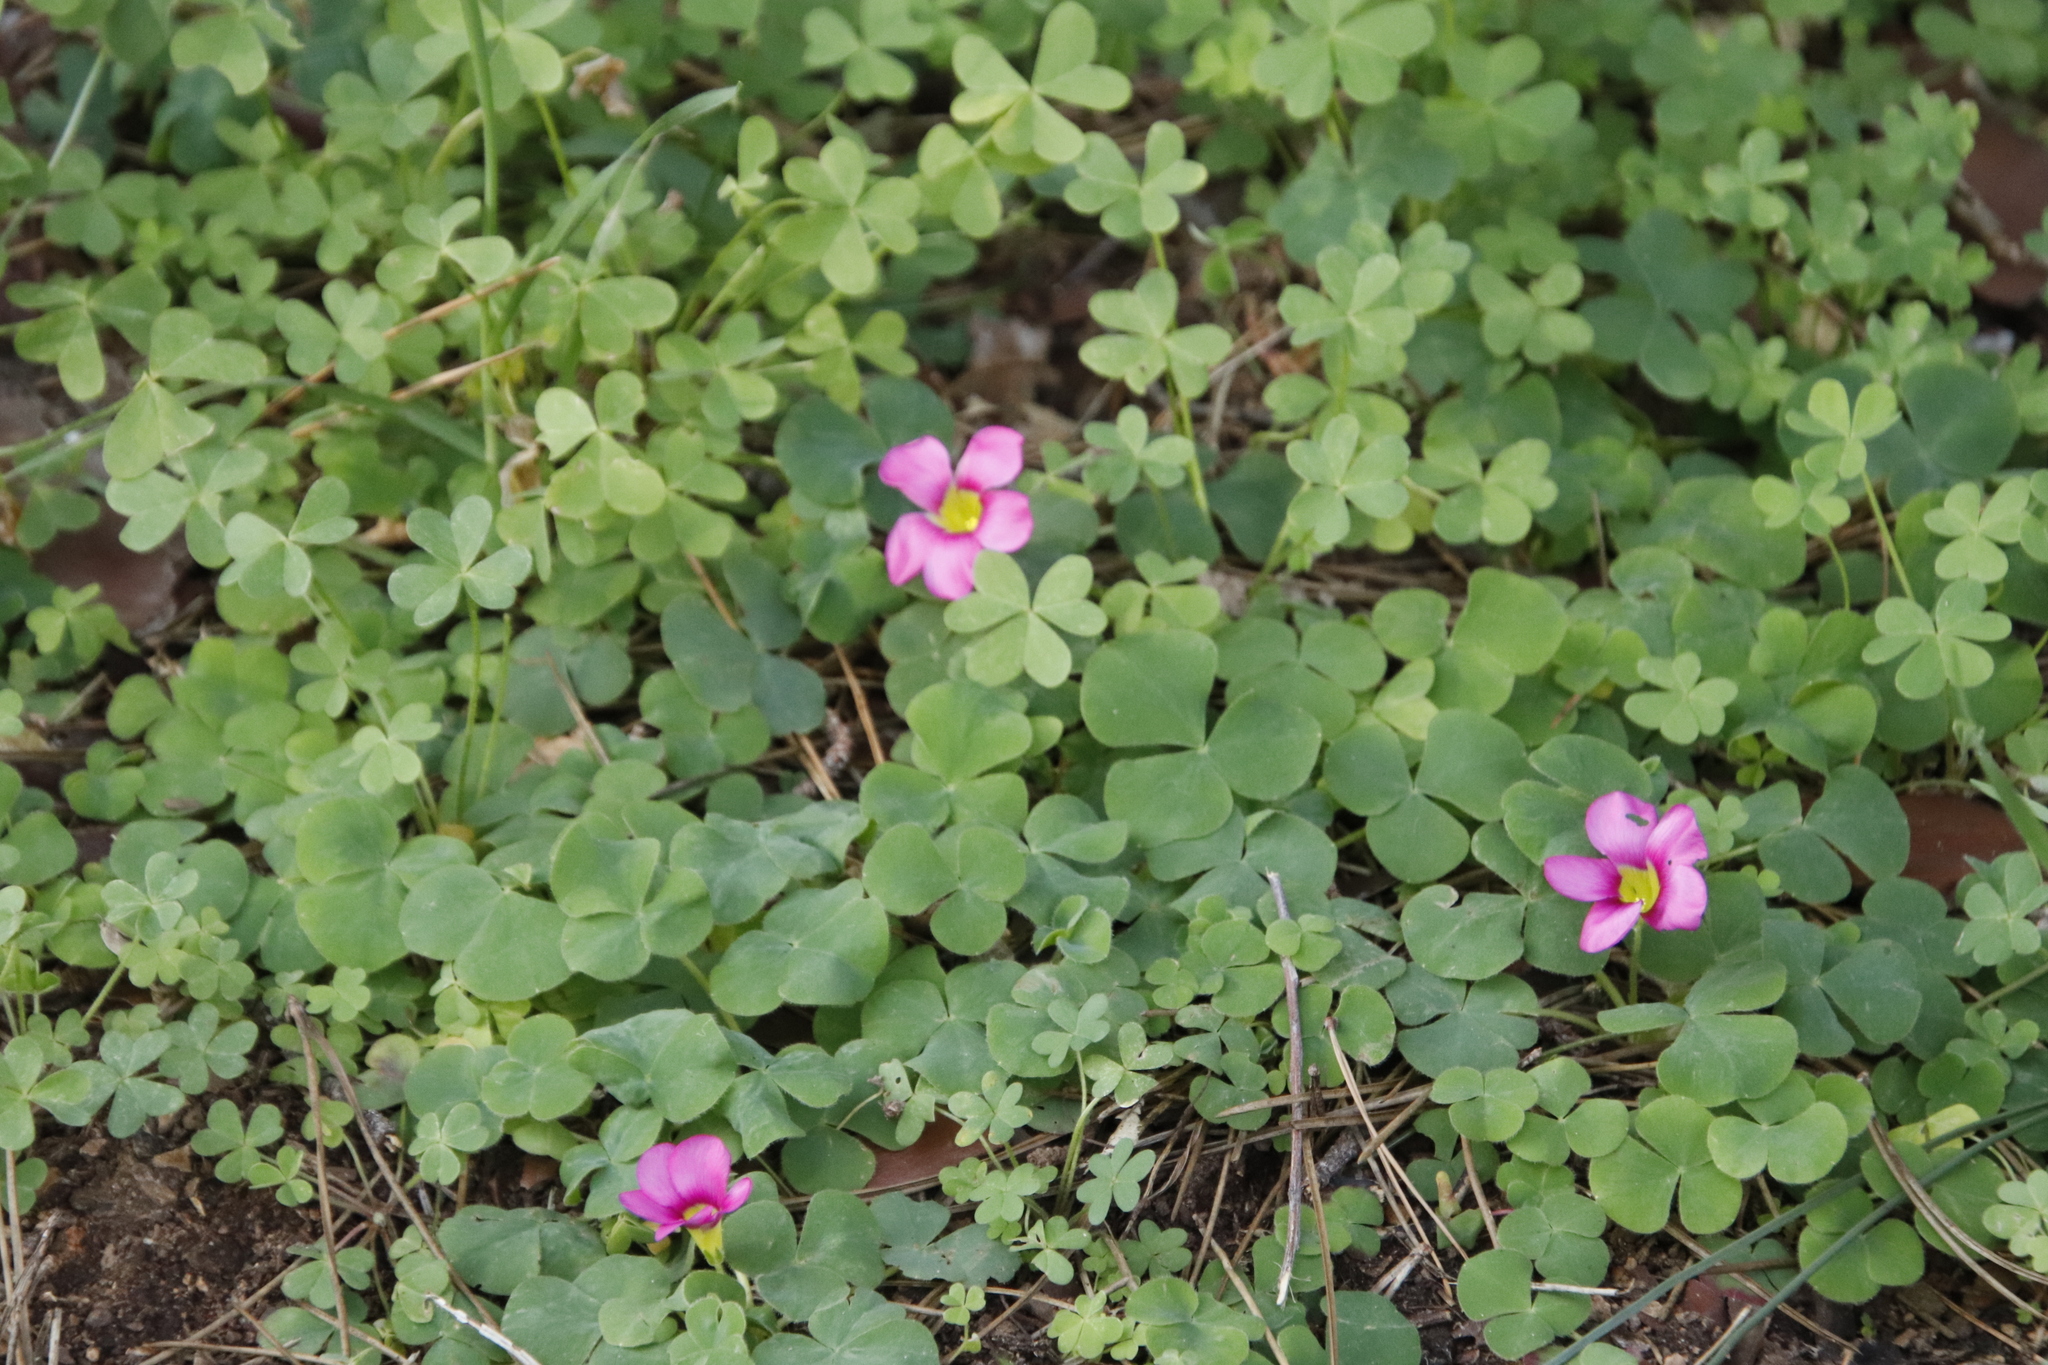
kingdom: Plantae
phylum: Tracheophyta
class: Magnoliopsida
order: Oxalidales
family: Oxalidaceae
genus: Oxalis
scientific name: Oxalis purpurea
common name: Purple woodsorrel
